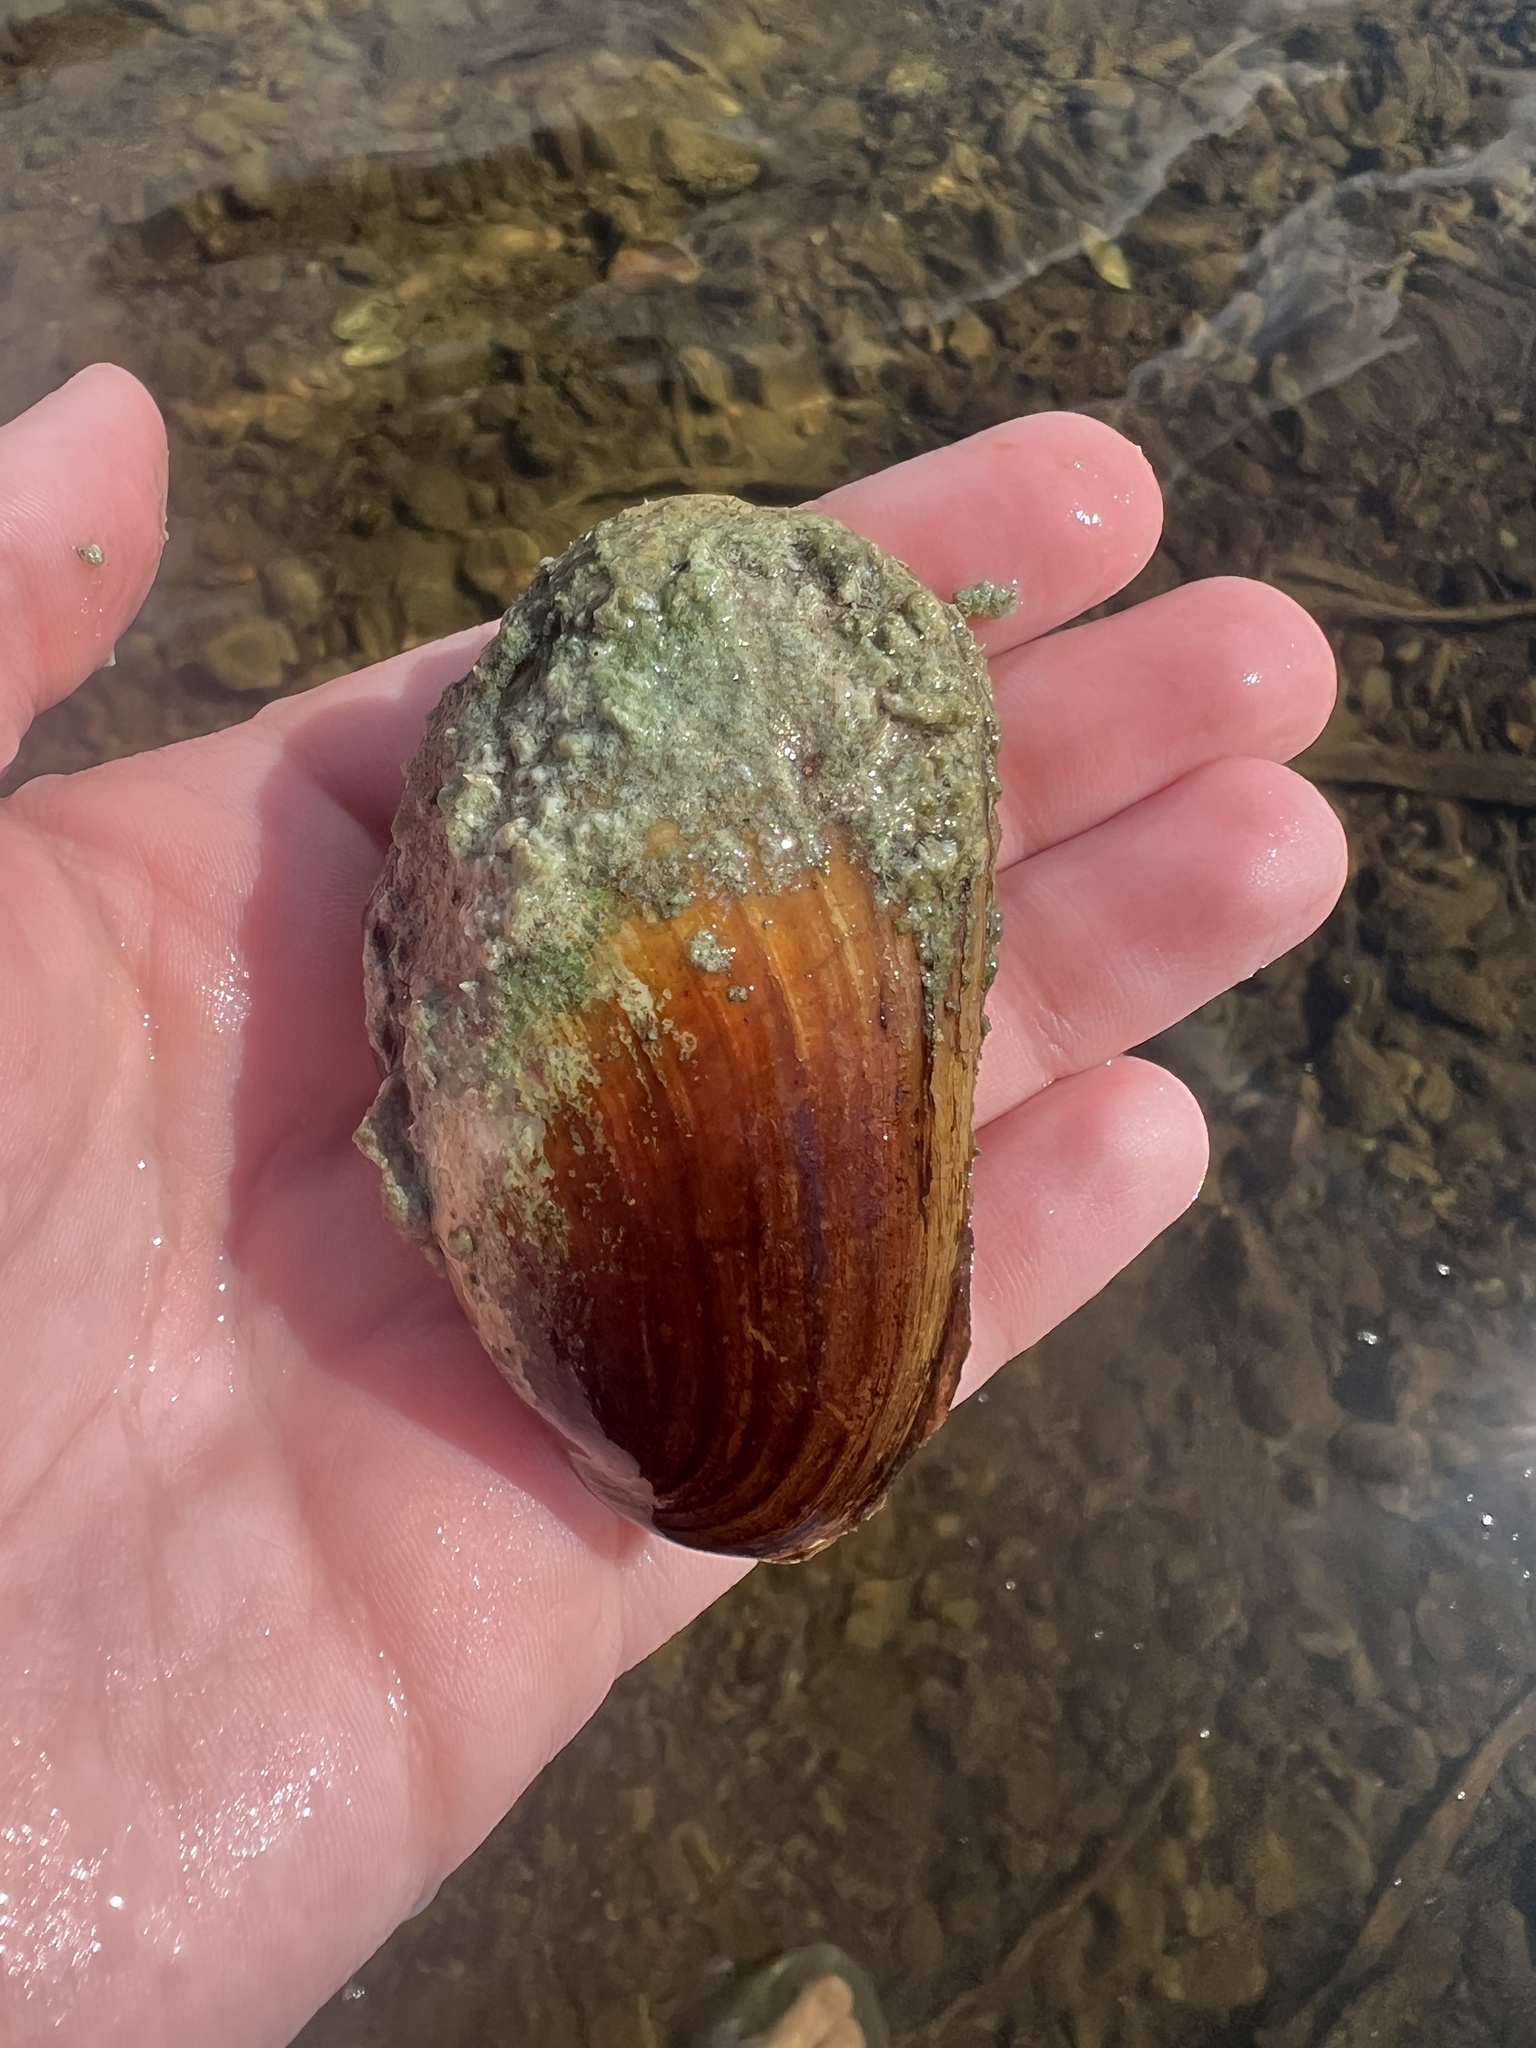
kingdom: Animalia
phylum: Mollusca
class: Bivalvia
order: Unionida
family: Unionidae
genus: Lampsilis
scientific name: Lampsilis siliquoidea
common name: Fatmucket
